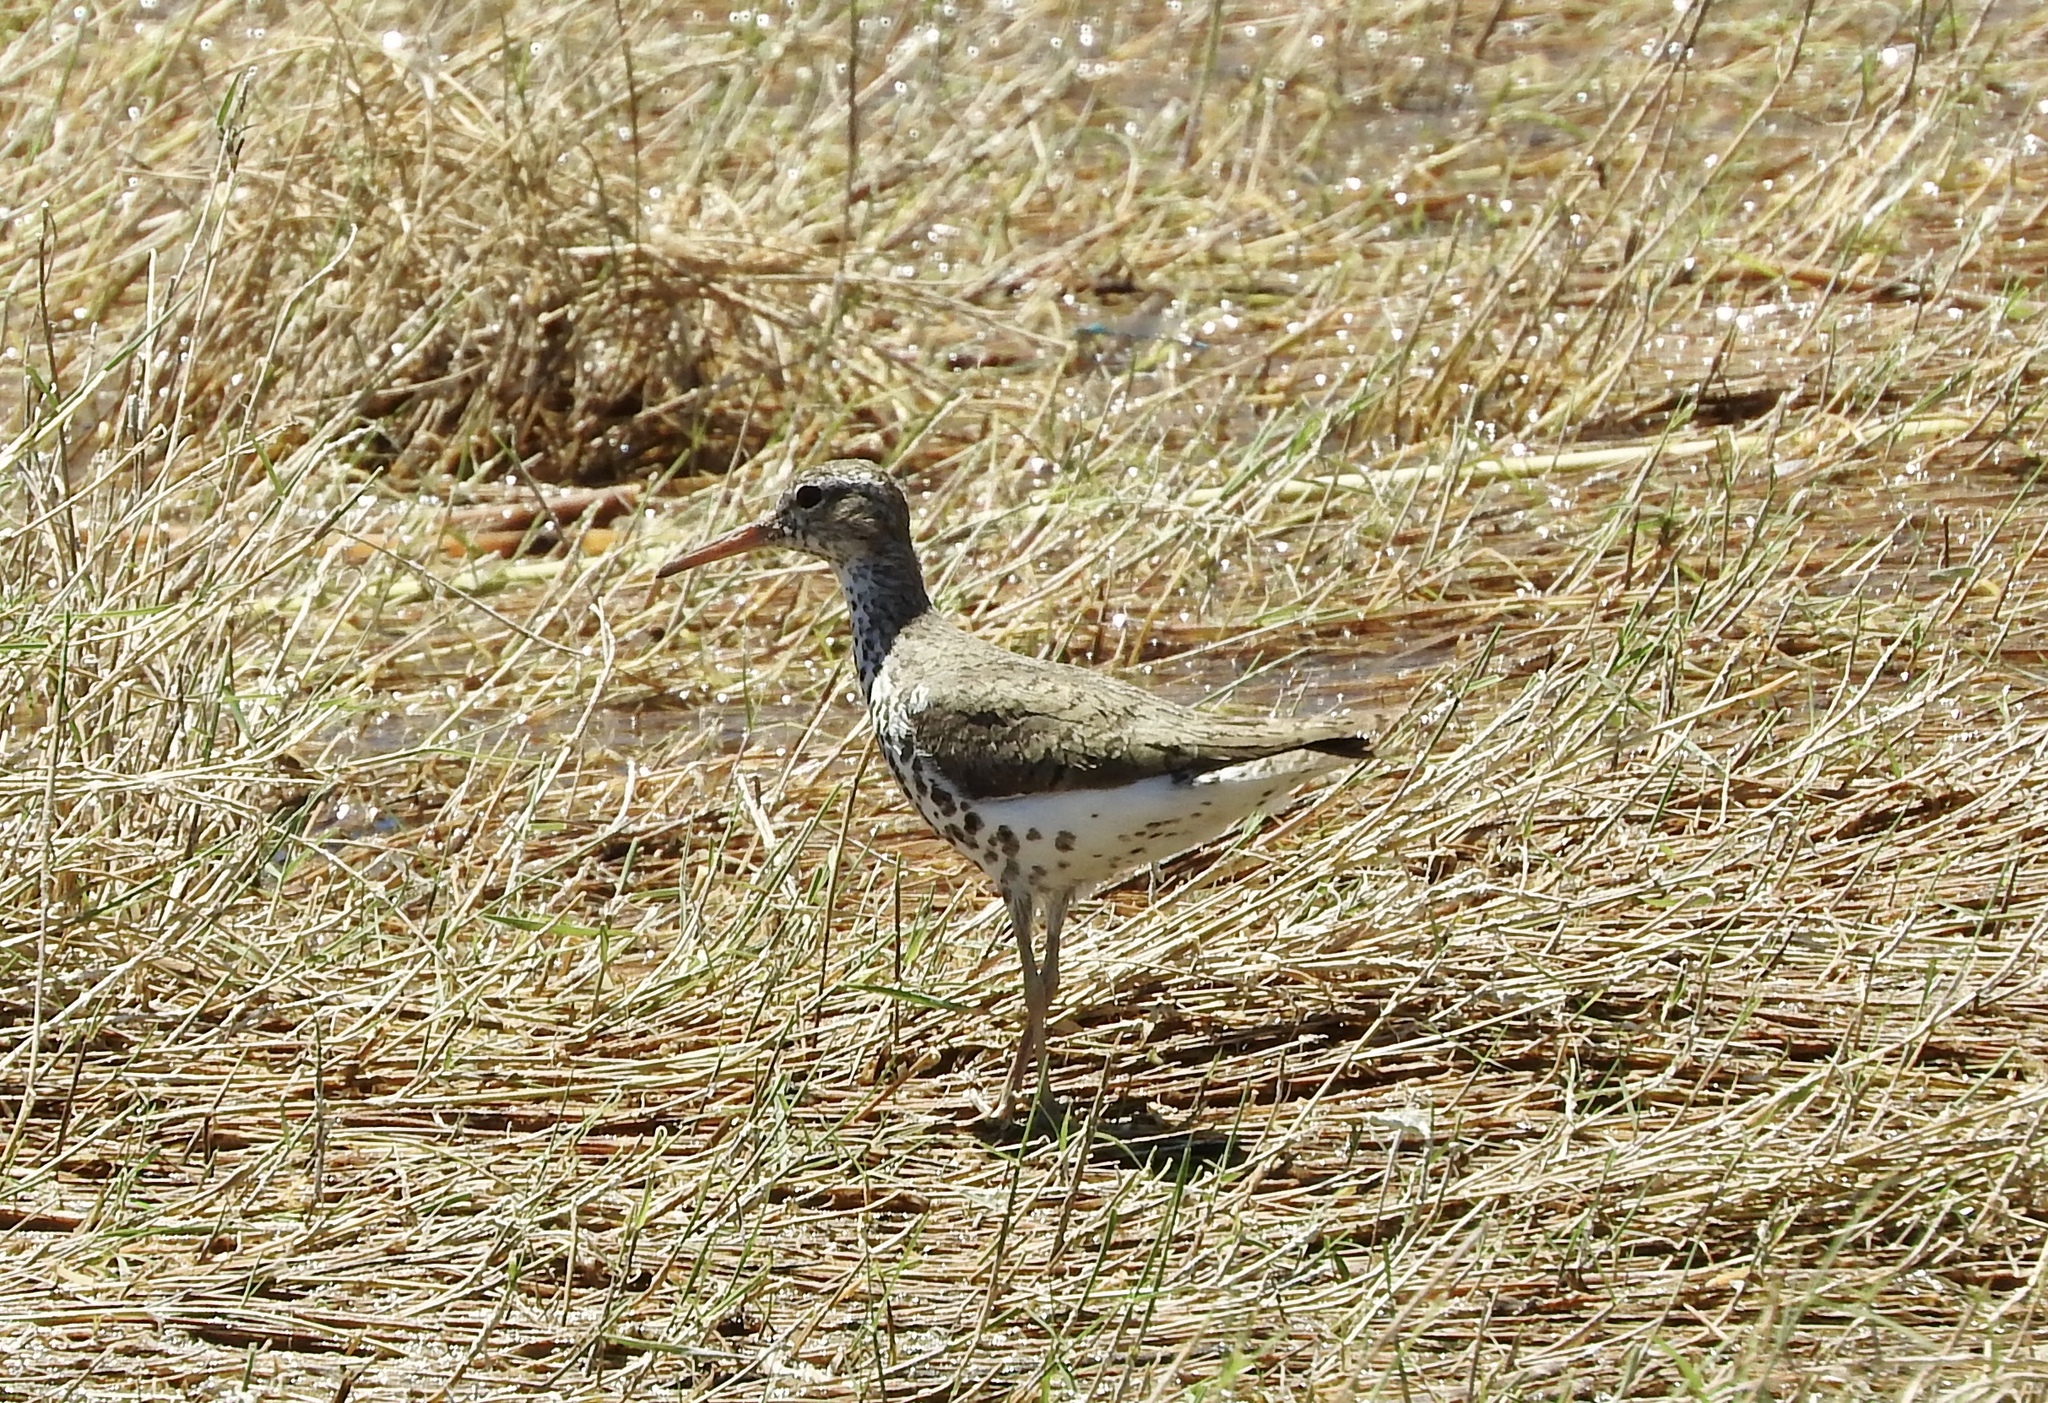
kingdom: Animalia
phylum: Chordata
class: Aves
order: Charadriiformes
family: Scolopacidae
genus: Actitis
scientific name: Actitis macularius
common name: Spotted sandpiper
